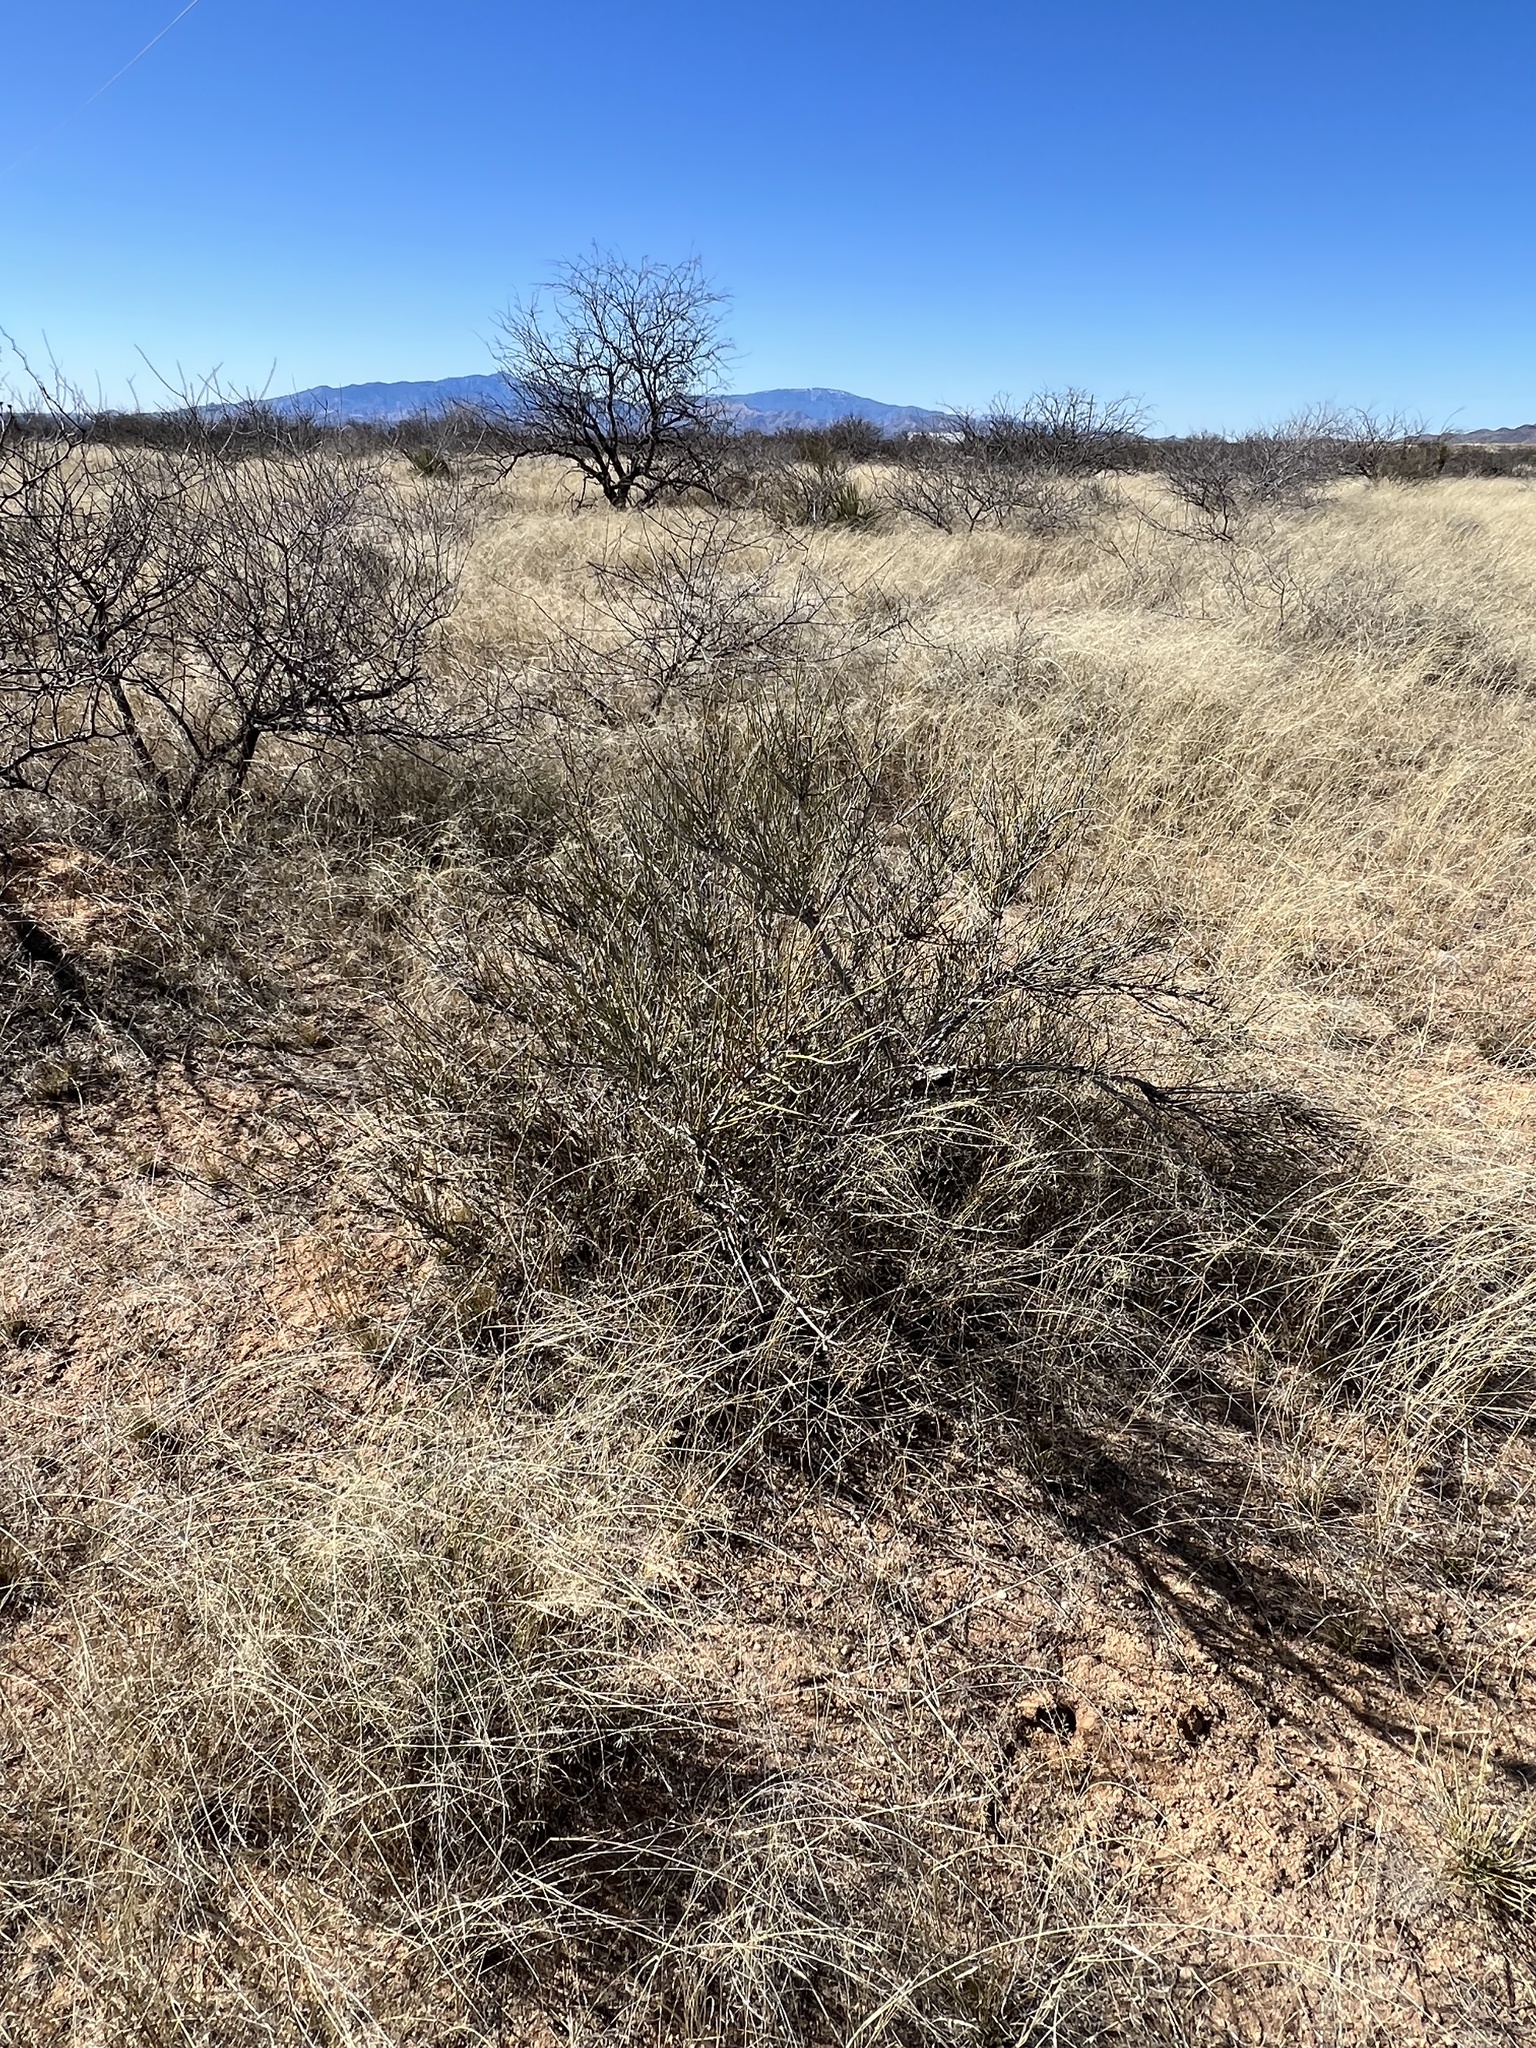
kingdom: Plantae
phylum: Tracheophyta
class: Gnetopsida
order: Ephedrales
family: Ephedraceae
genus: Ephedra
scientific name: Ephedra trifurca
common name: Mexican-tea
